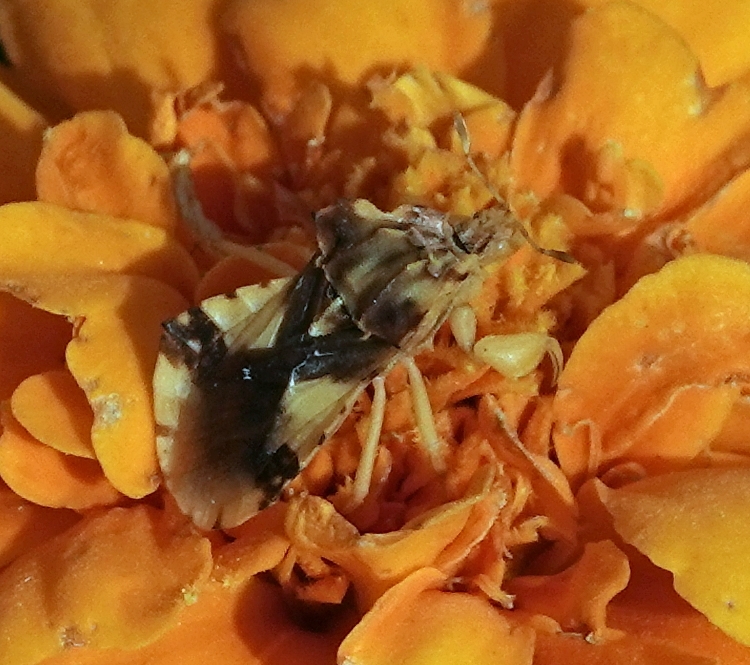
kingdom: Animalia
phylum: Arthropoda
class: Insecta
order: Hemiptera
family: Reduviidae
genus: Phymata
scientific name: Phymata americana
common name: Jagged ambush bug
